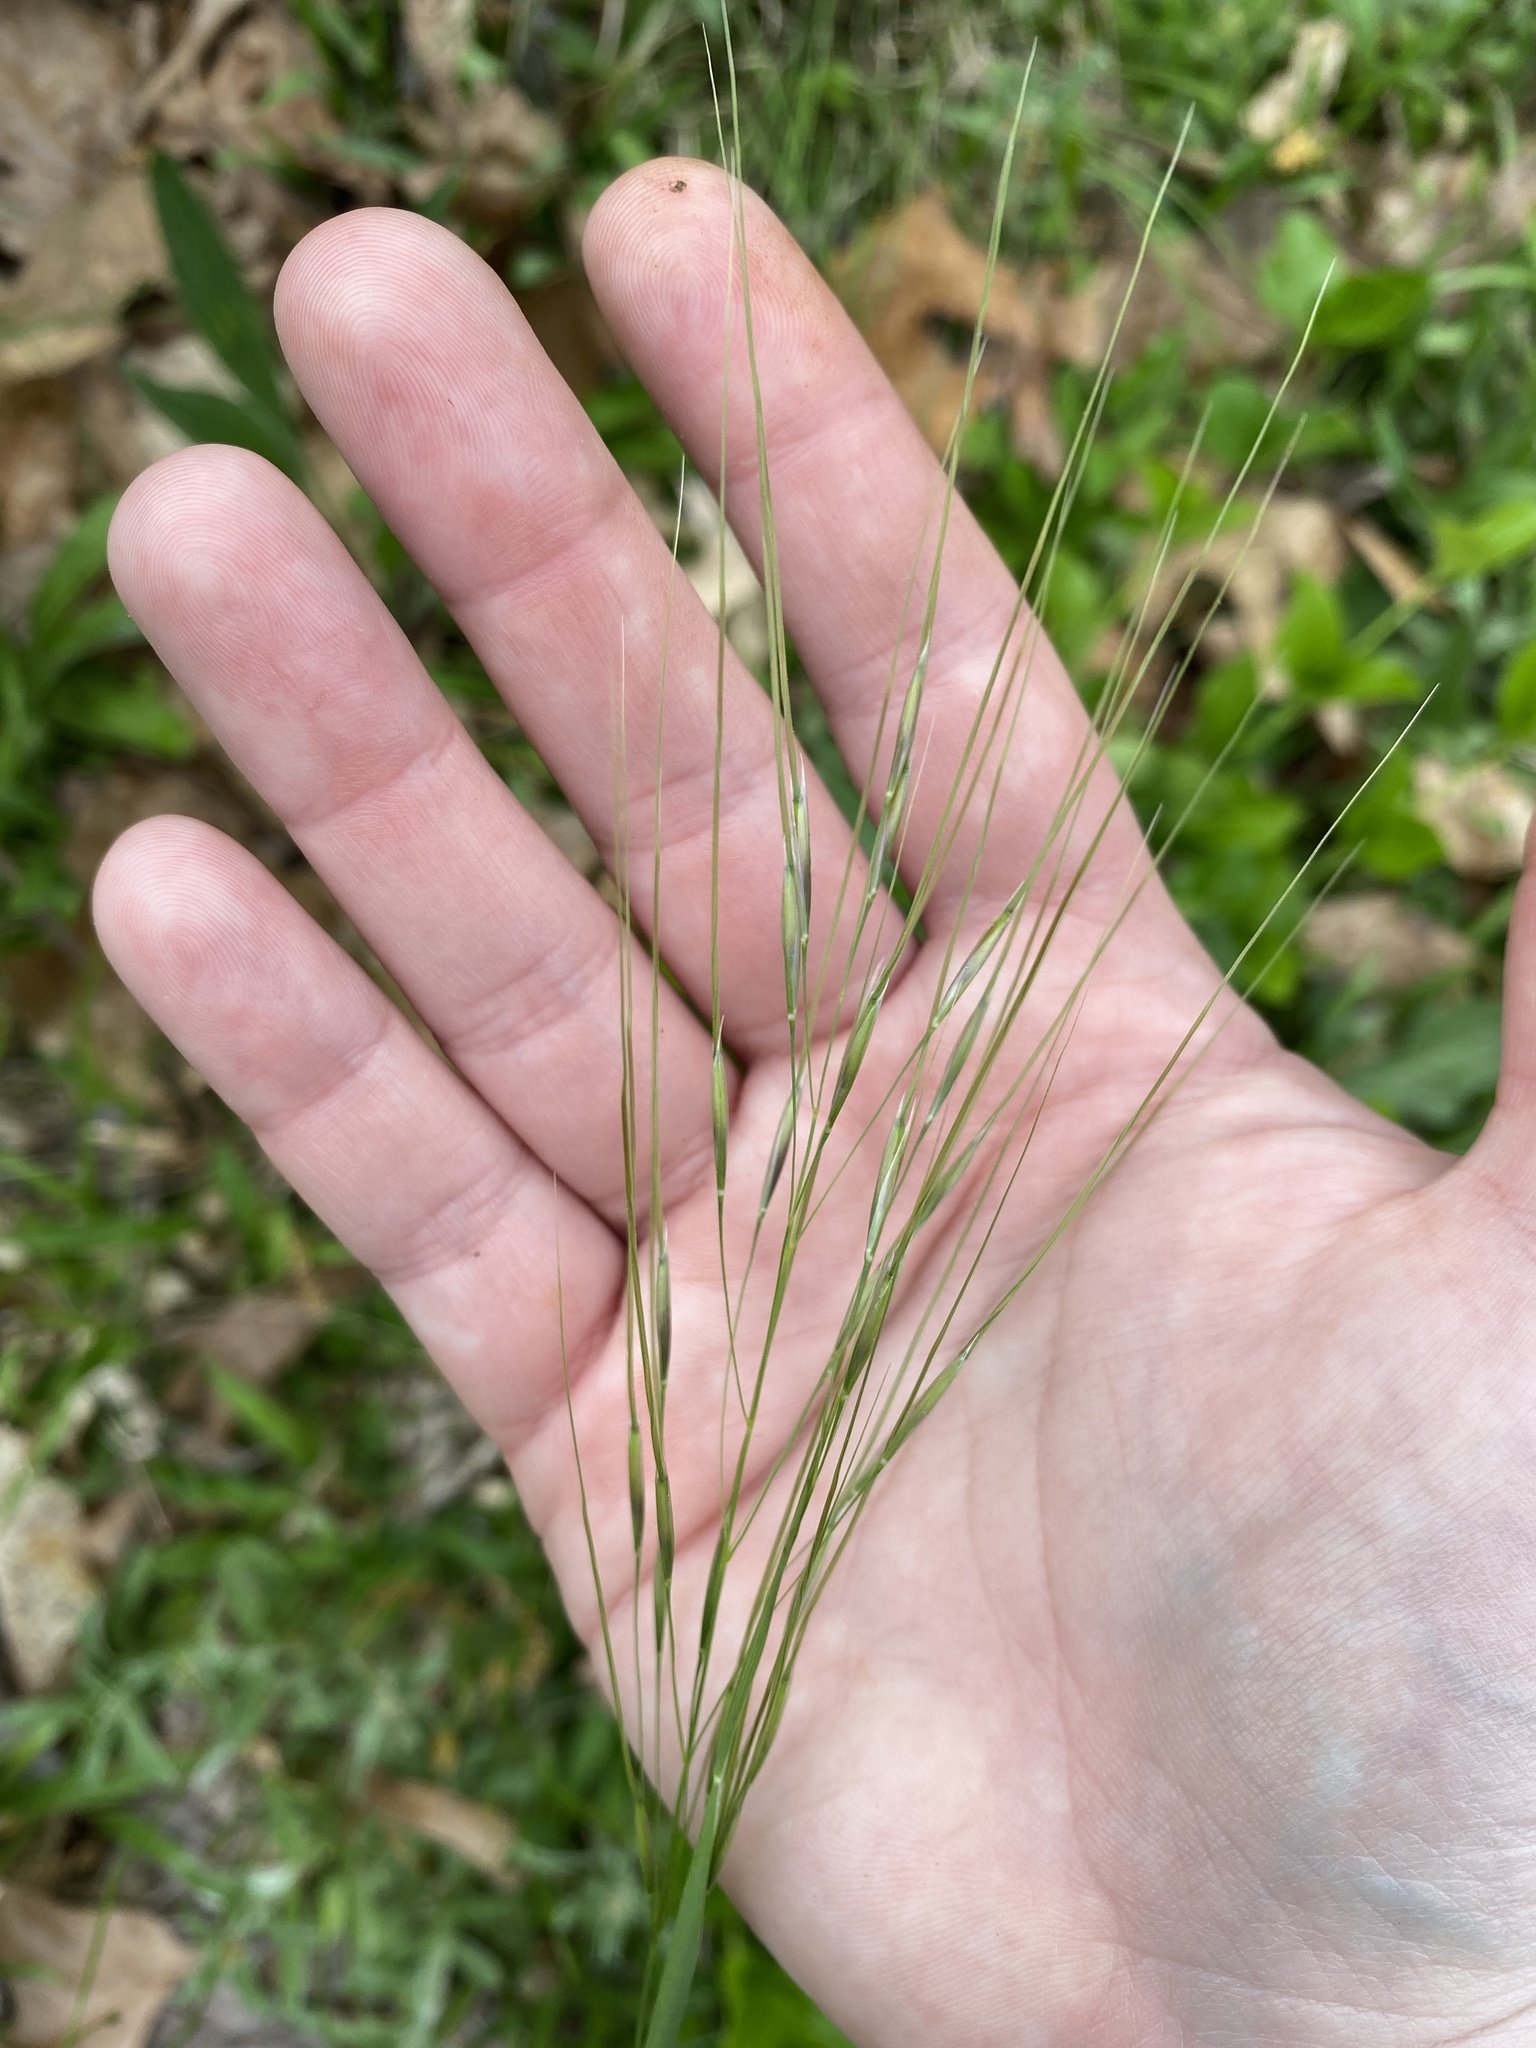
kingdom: Plantae
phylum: Tracheophyta
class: Liliopsida
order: Poales
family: Poaceae
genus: Piptochaetium
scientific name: Piptochaetium avenaceum
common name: Black bunchgrass
